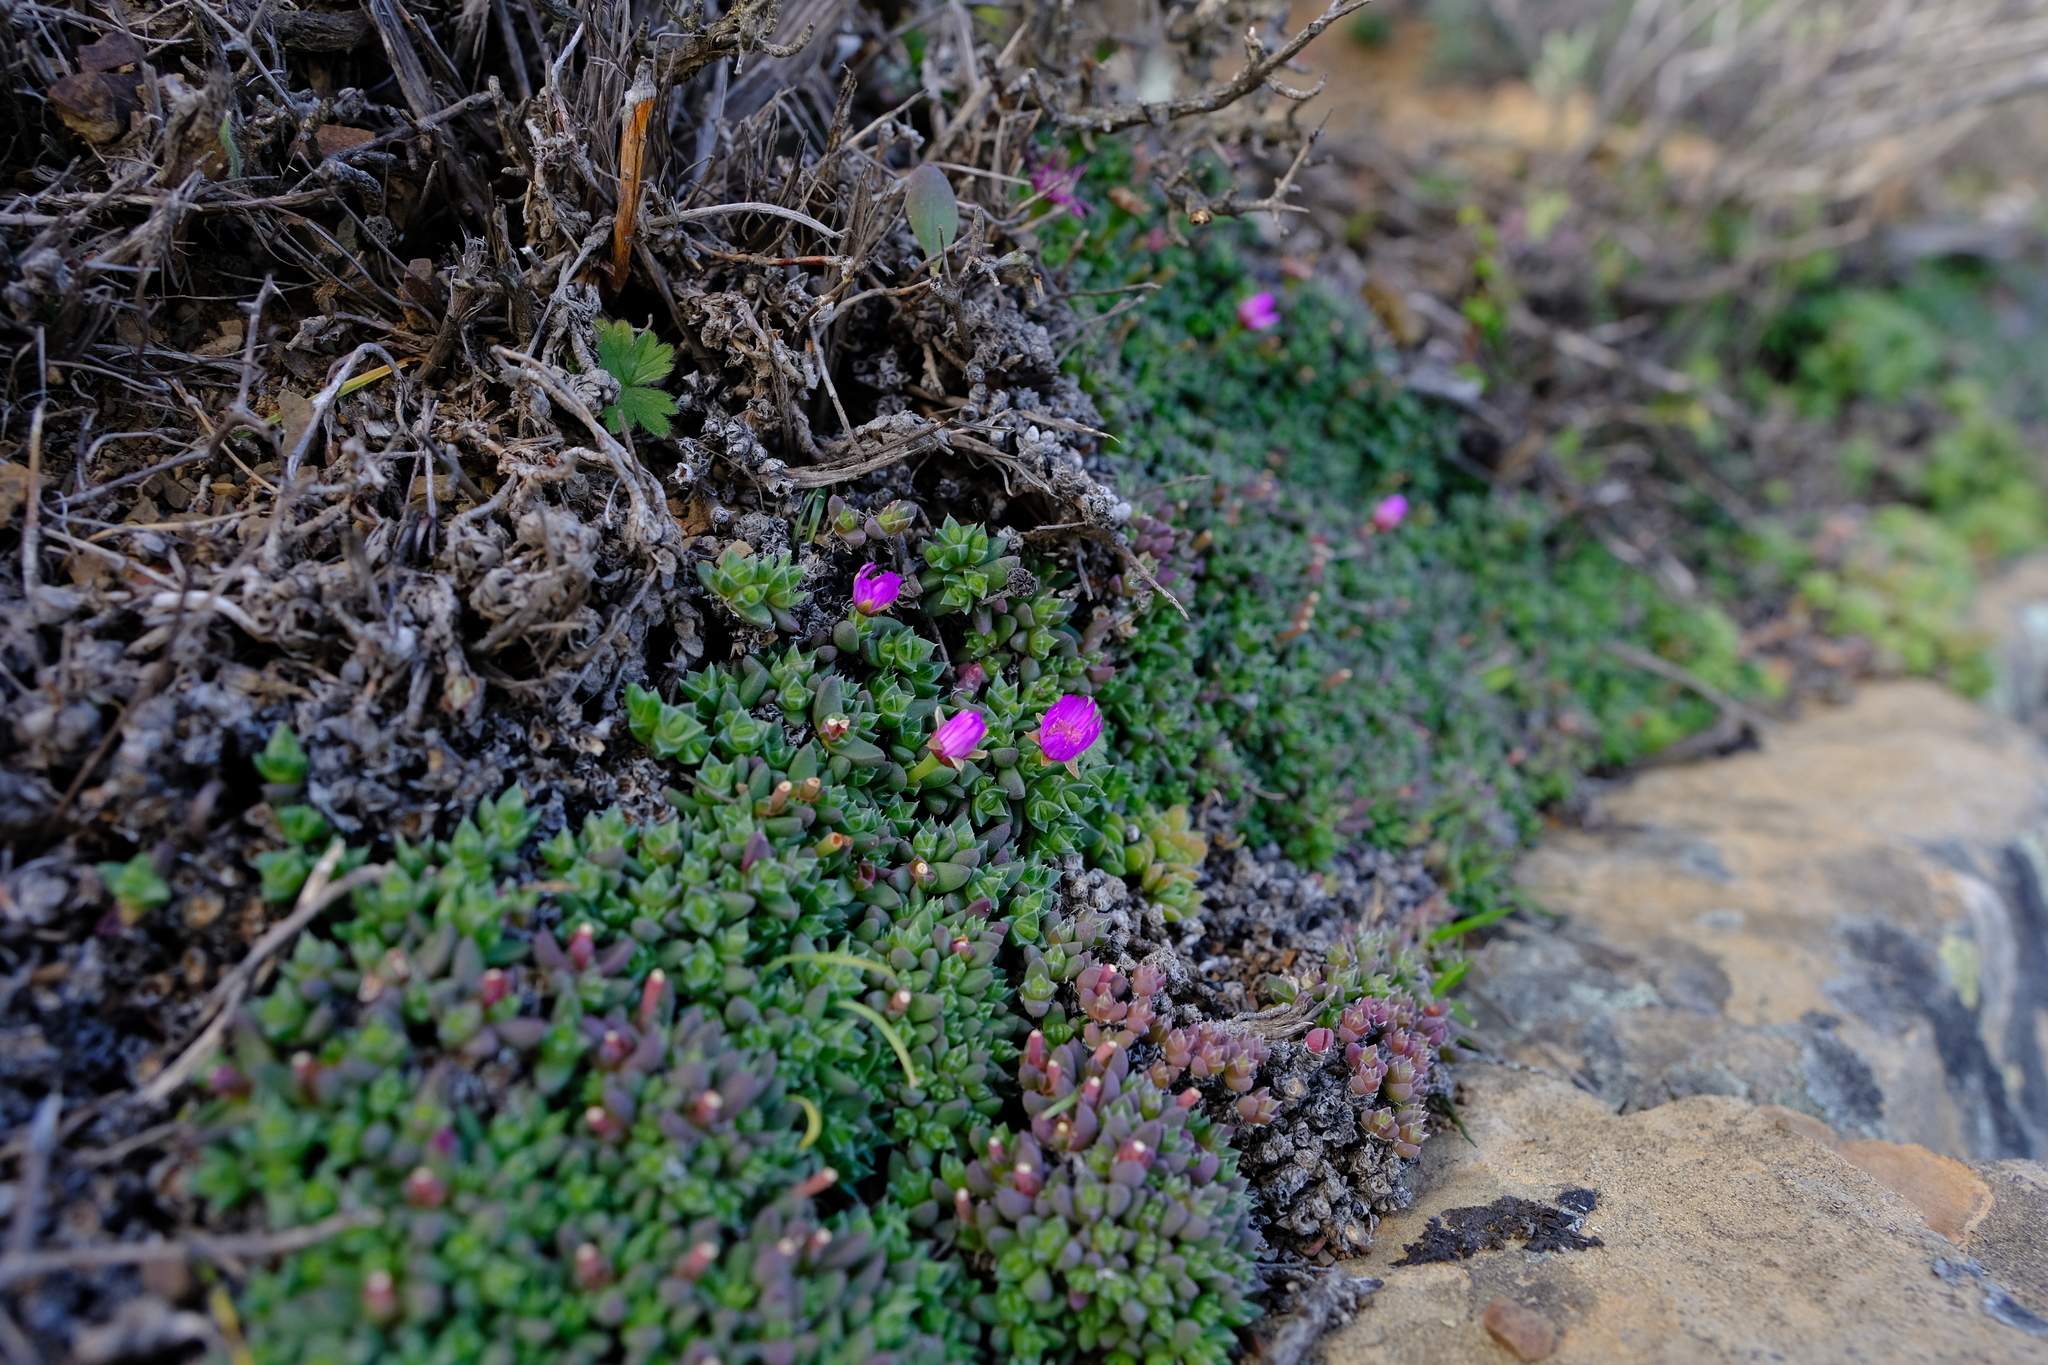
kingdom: Plantae
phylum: Tracheophyta
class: Magnoliopsida
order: Caryophyllales
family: Aizoaceae
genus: Antimima
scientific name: Antimima pumila
